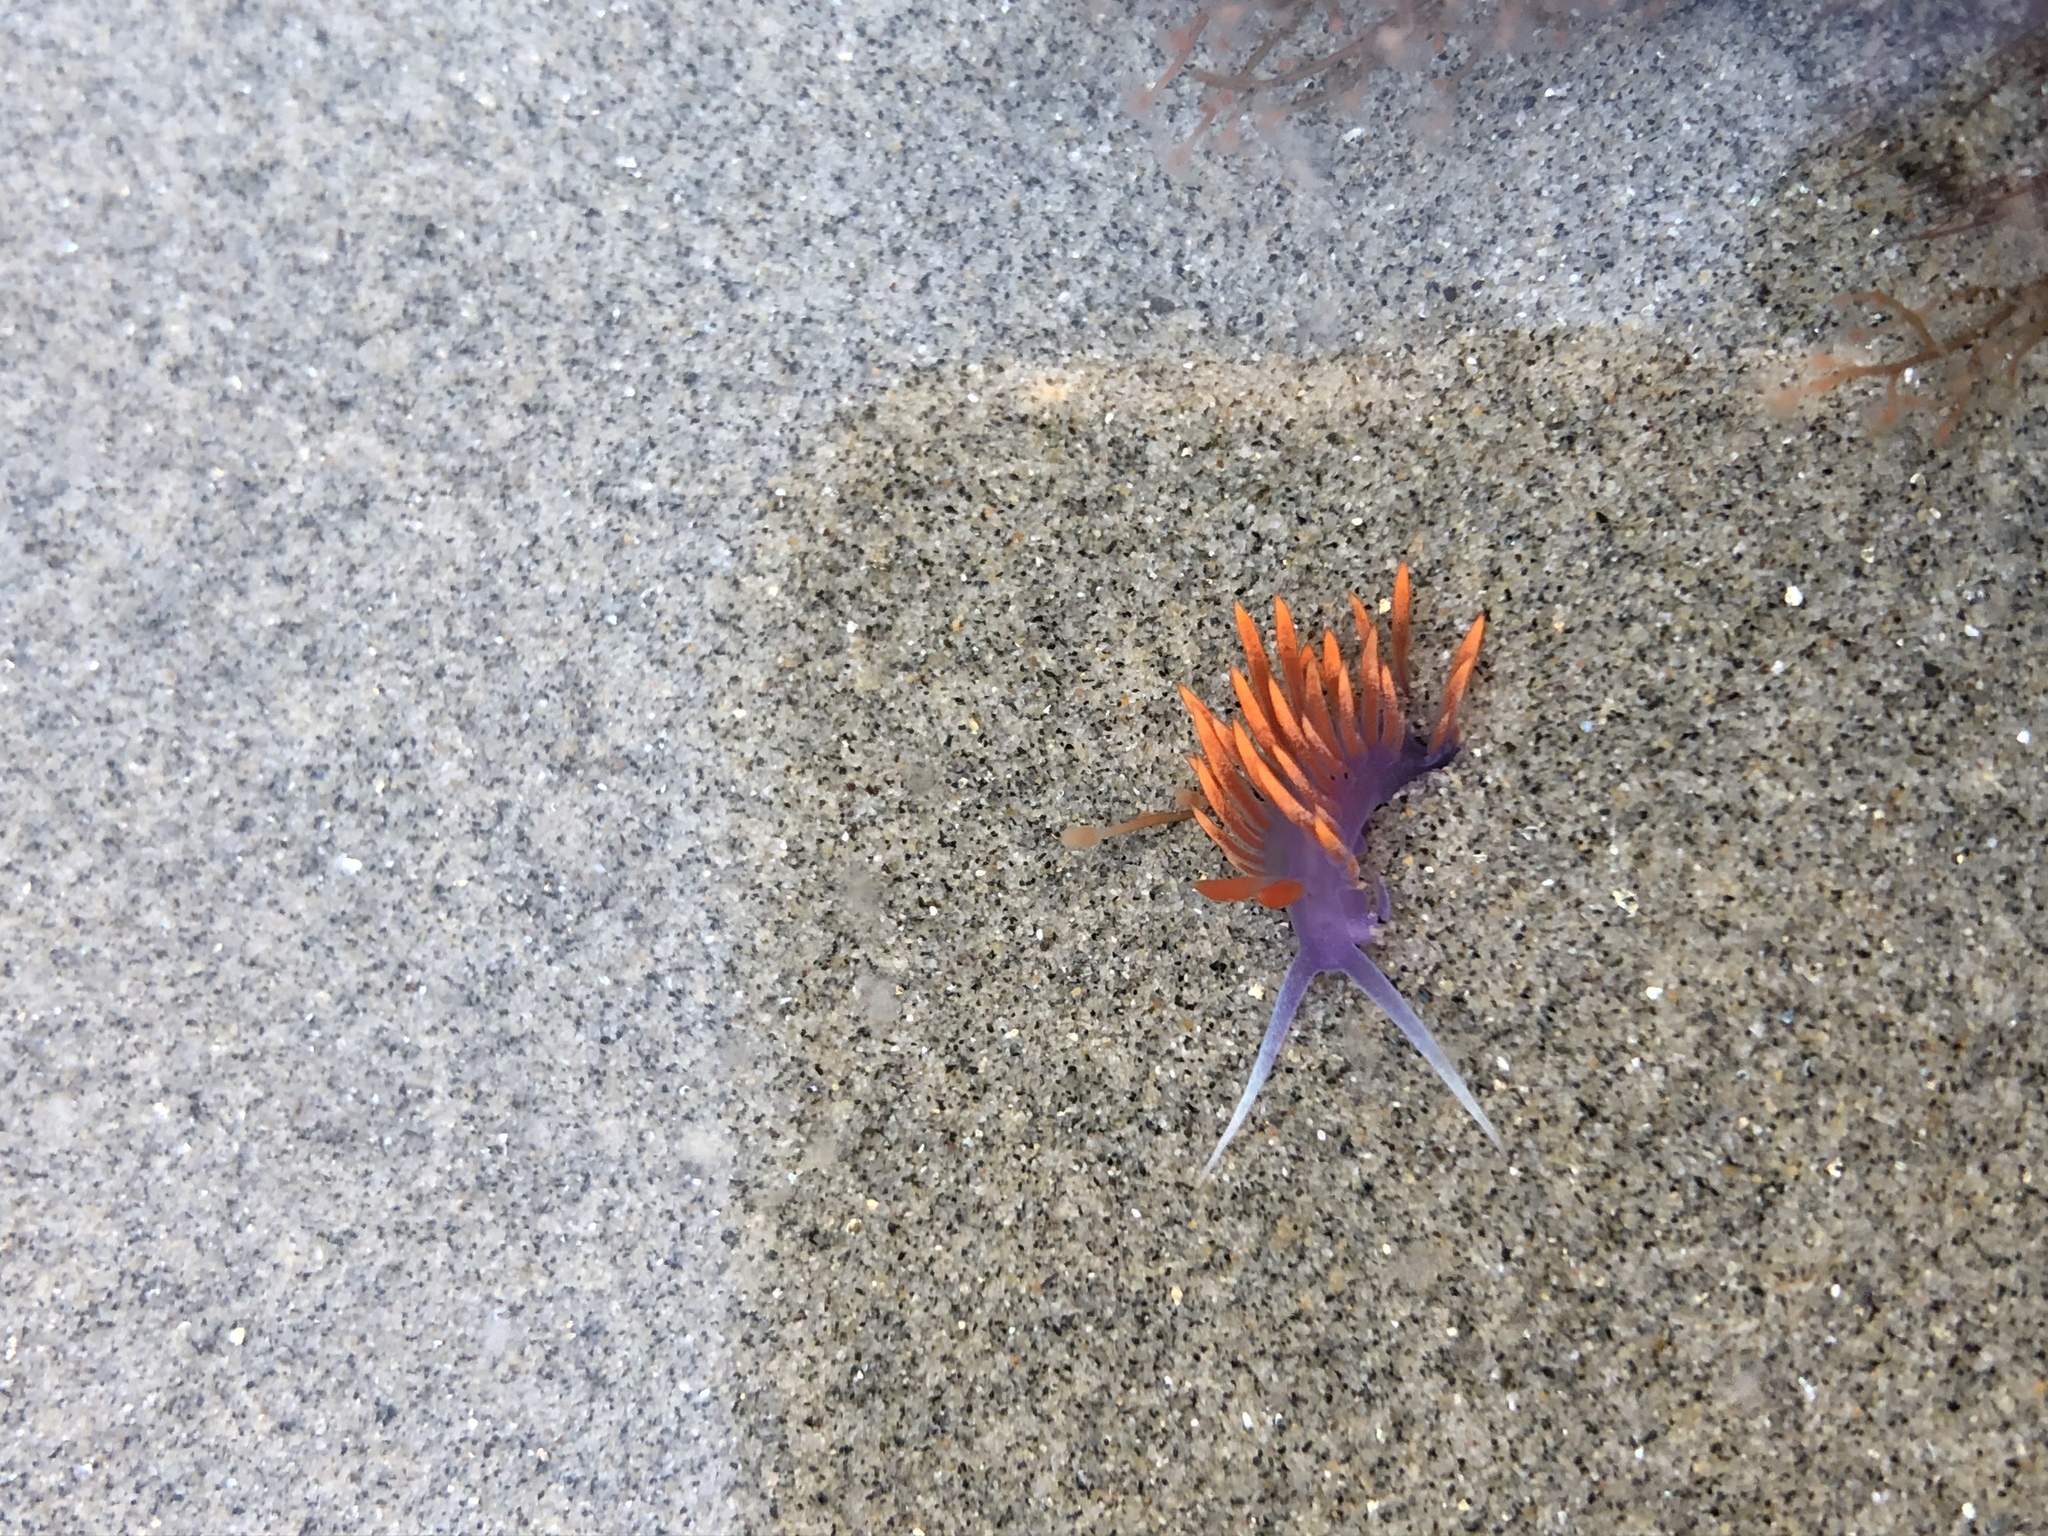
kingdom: Animalia
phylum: Mollusca
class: Gastropoda
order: Nudibranchia
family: Flabellinopsidae
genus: Flabellinopsis
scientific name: Flabellinopsis iodinea
